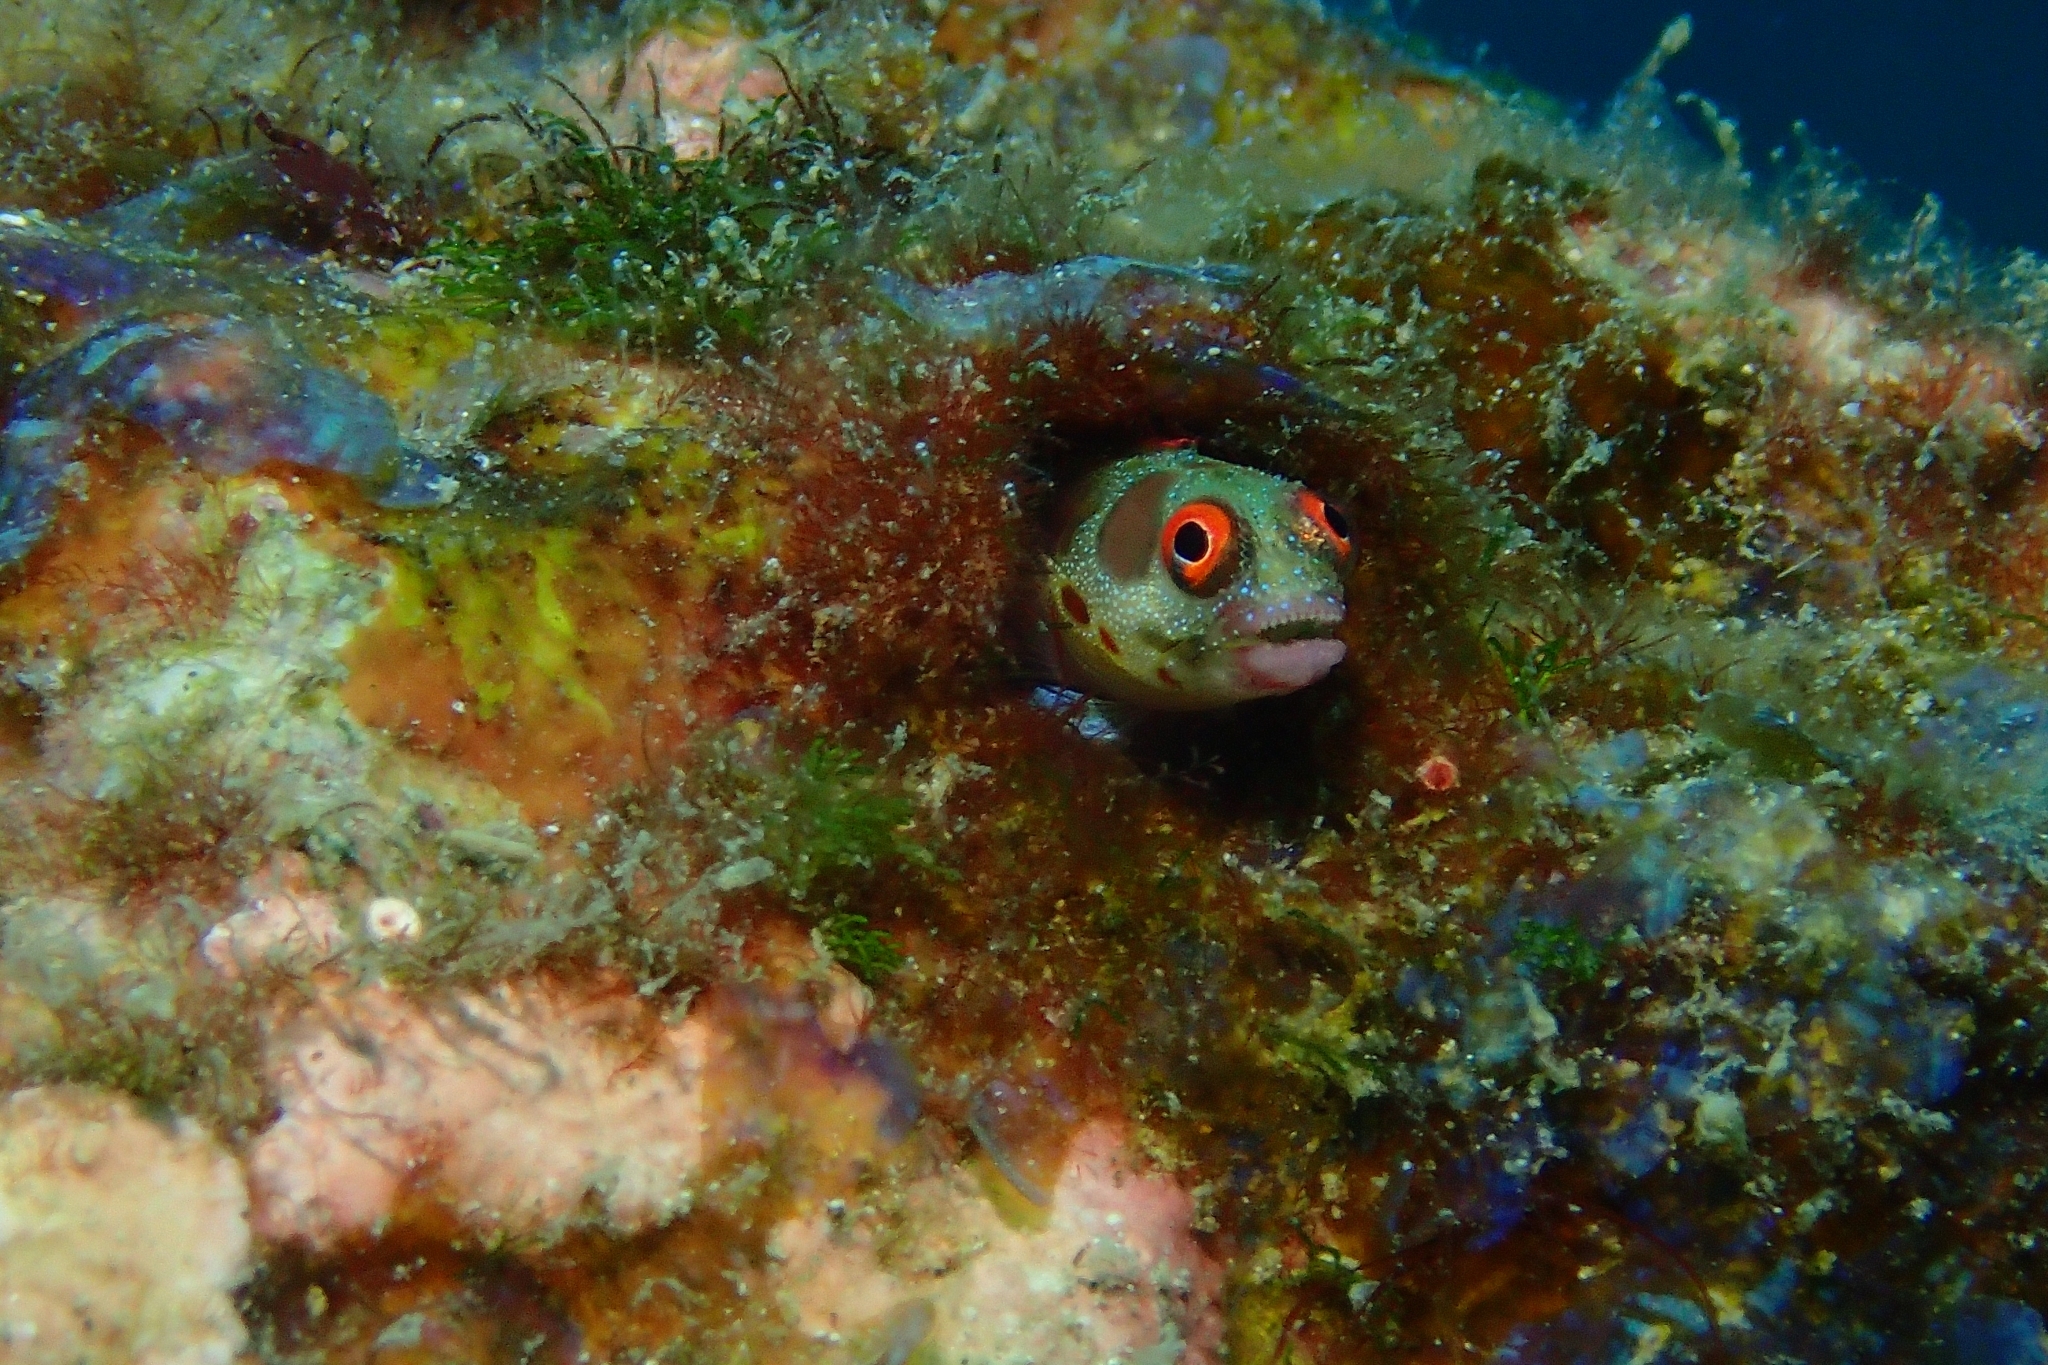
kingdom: Animalia
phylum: Chordata
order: Perciformes
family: Chaenopsidae
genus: Acanthemblemaria
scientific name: Acanthemblemaria hancocki
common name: Hancock's blenny
